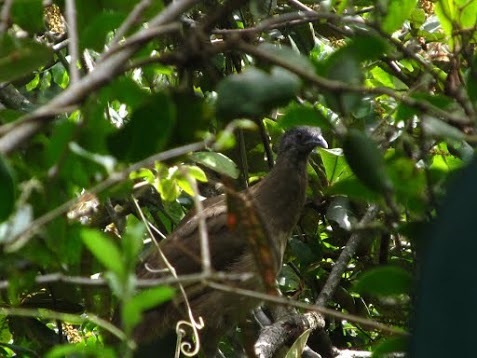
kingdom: Animalia
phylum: Chordata
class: Aves
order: Galliformes
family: Cracidae
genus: Ortalis
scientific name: Ortalis vetula
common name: Plain chachalaca
